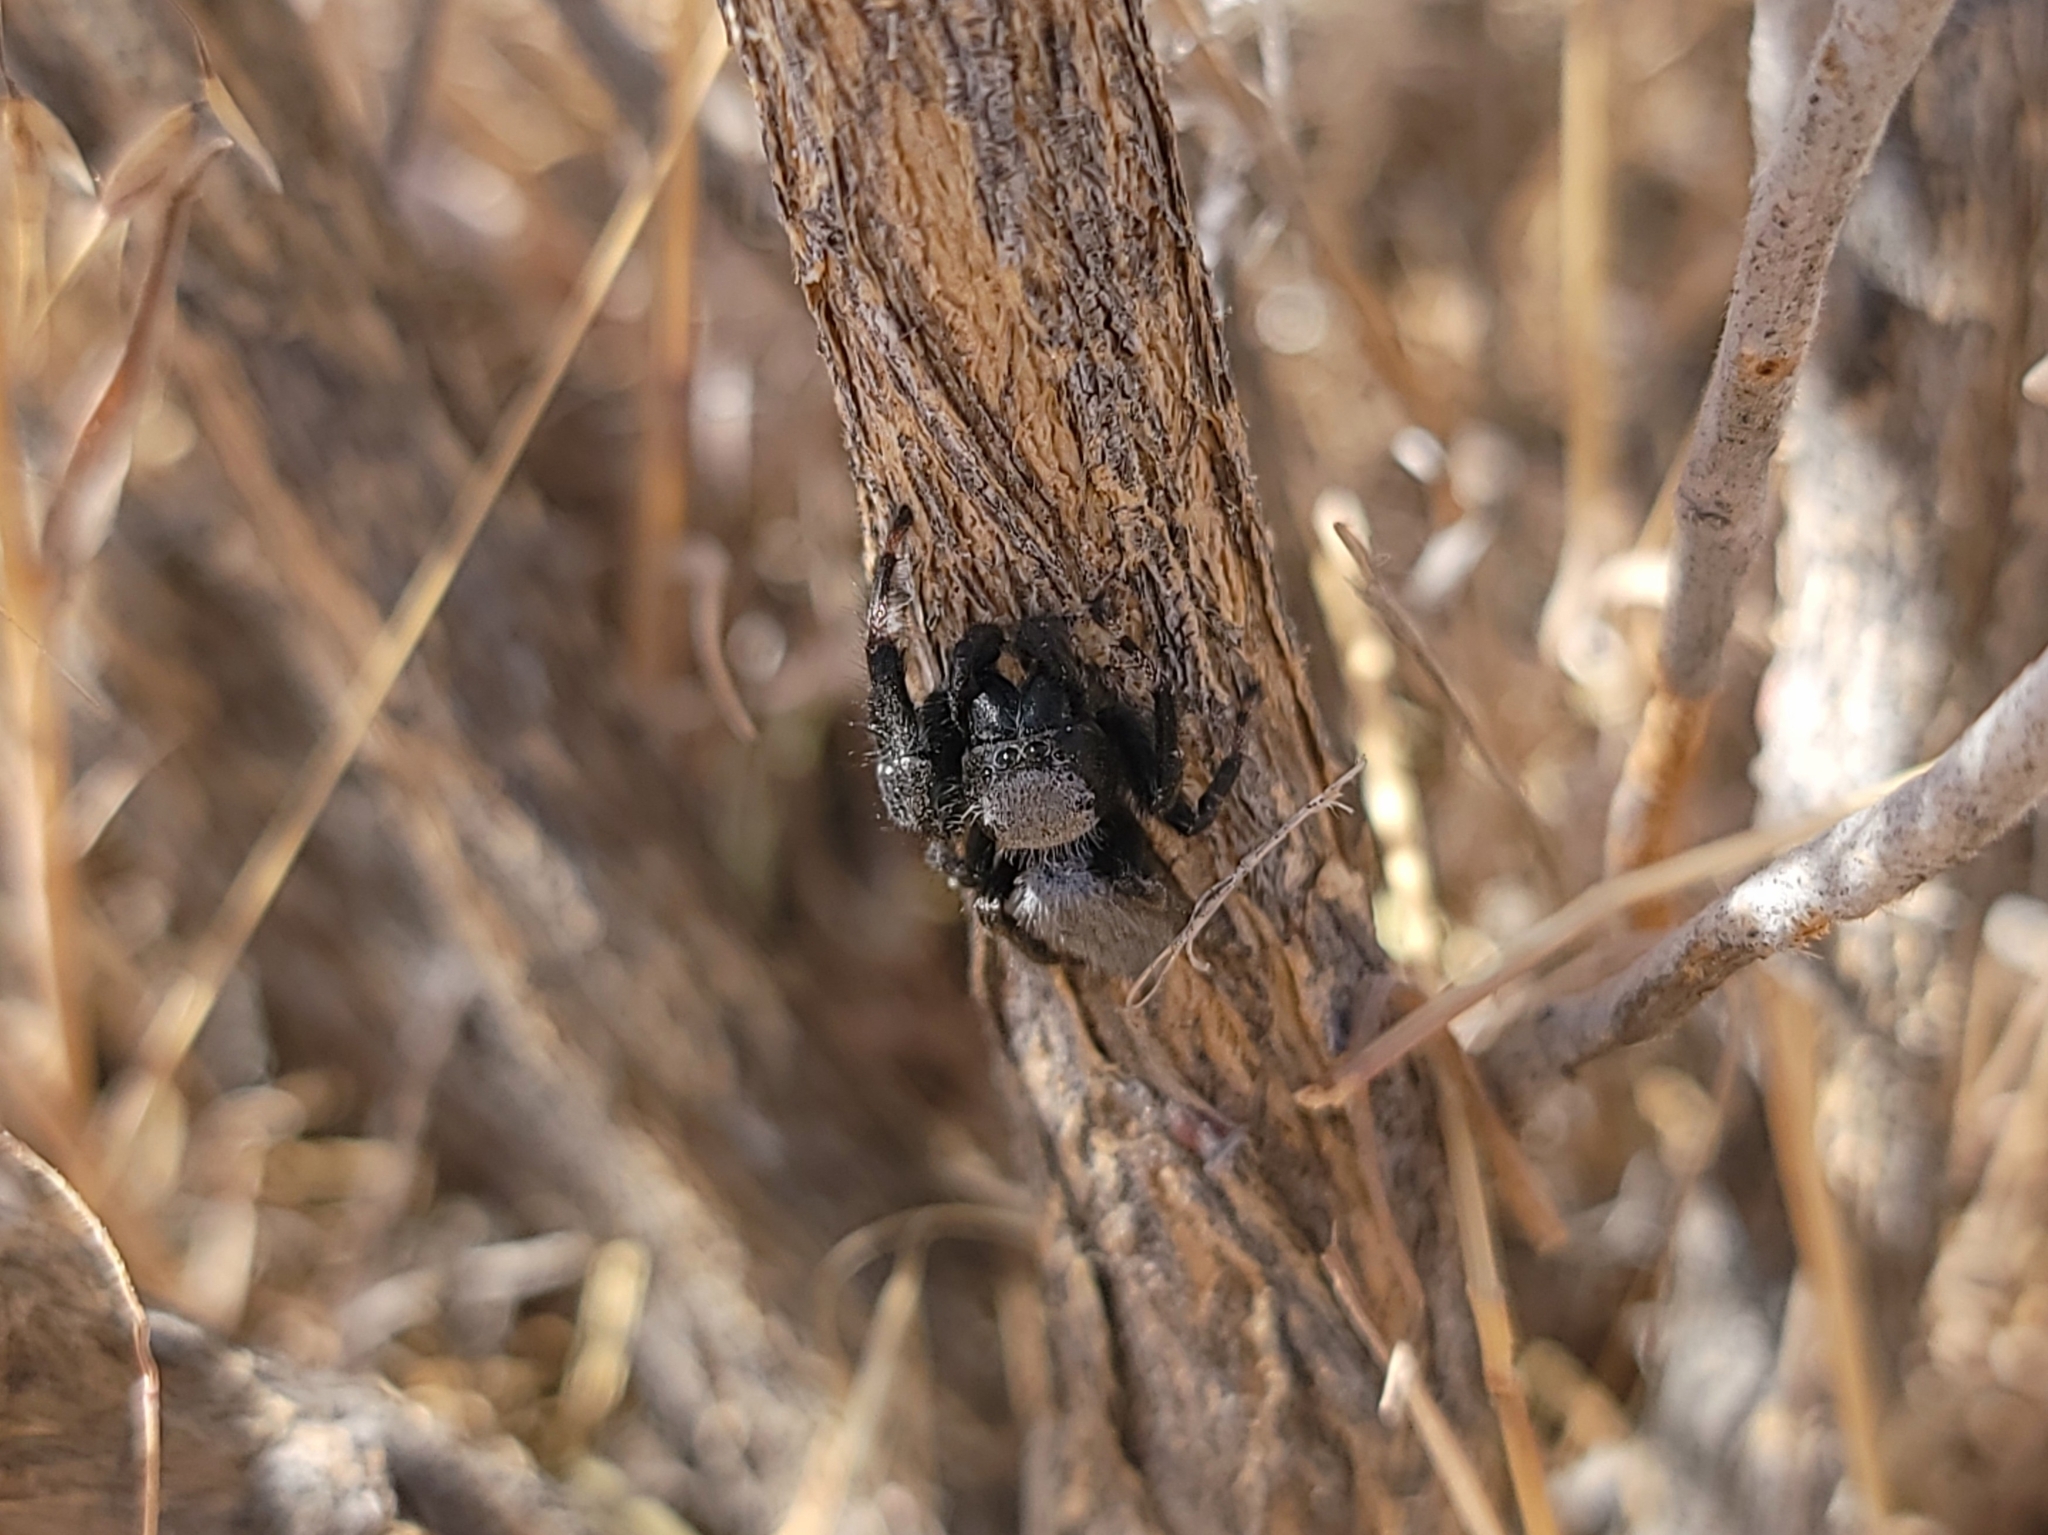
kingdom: Animalia
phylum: Arthropoda
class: Arachnida
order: Araneae
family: Salticidae
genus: Phidippus
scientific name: Phidippus octopunctatus
